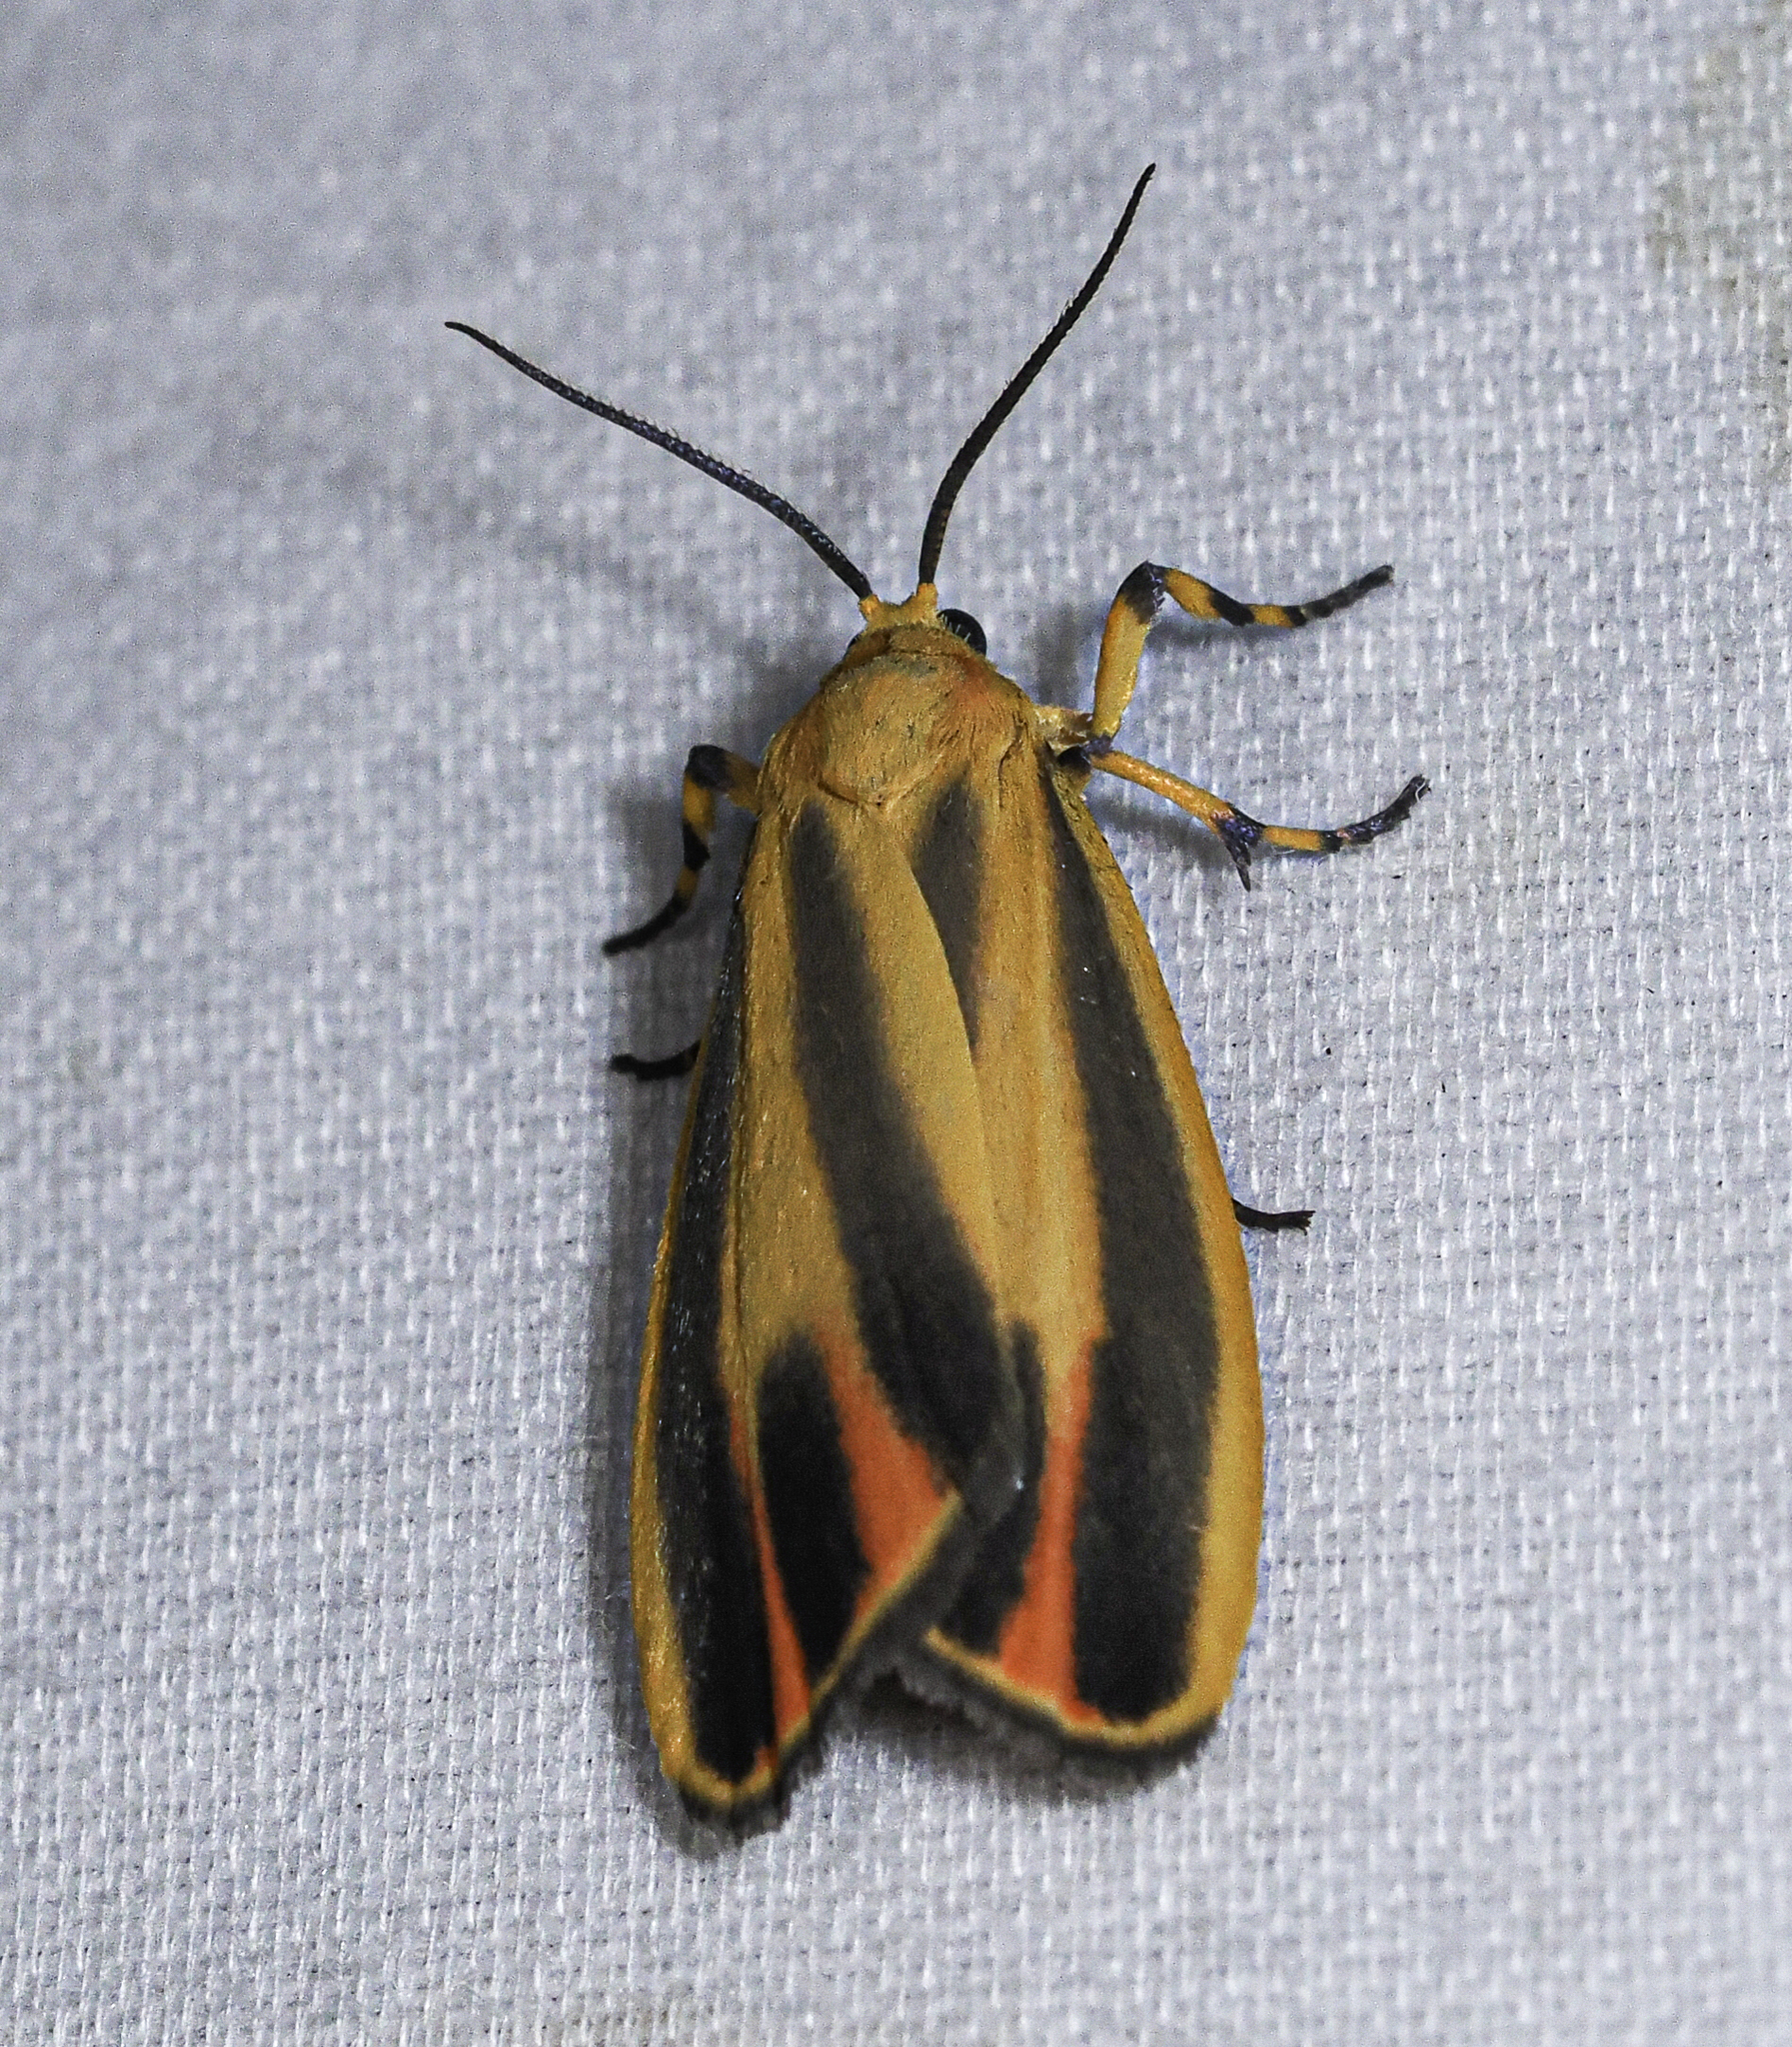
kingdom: Animalia
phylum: Arthropoda
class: Insecta
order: Lepidoptera
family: Erebidae
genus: Hypoprepia
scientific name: Hypoprepia fucosa
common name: Painted lichen moth
